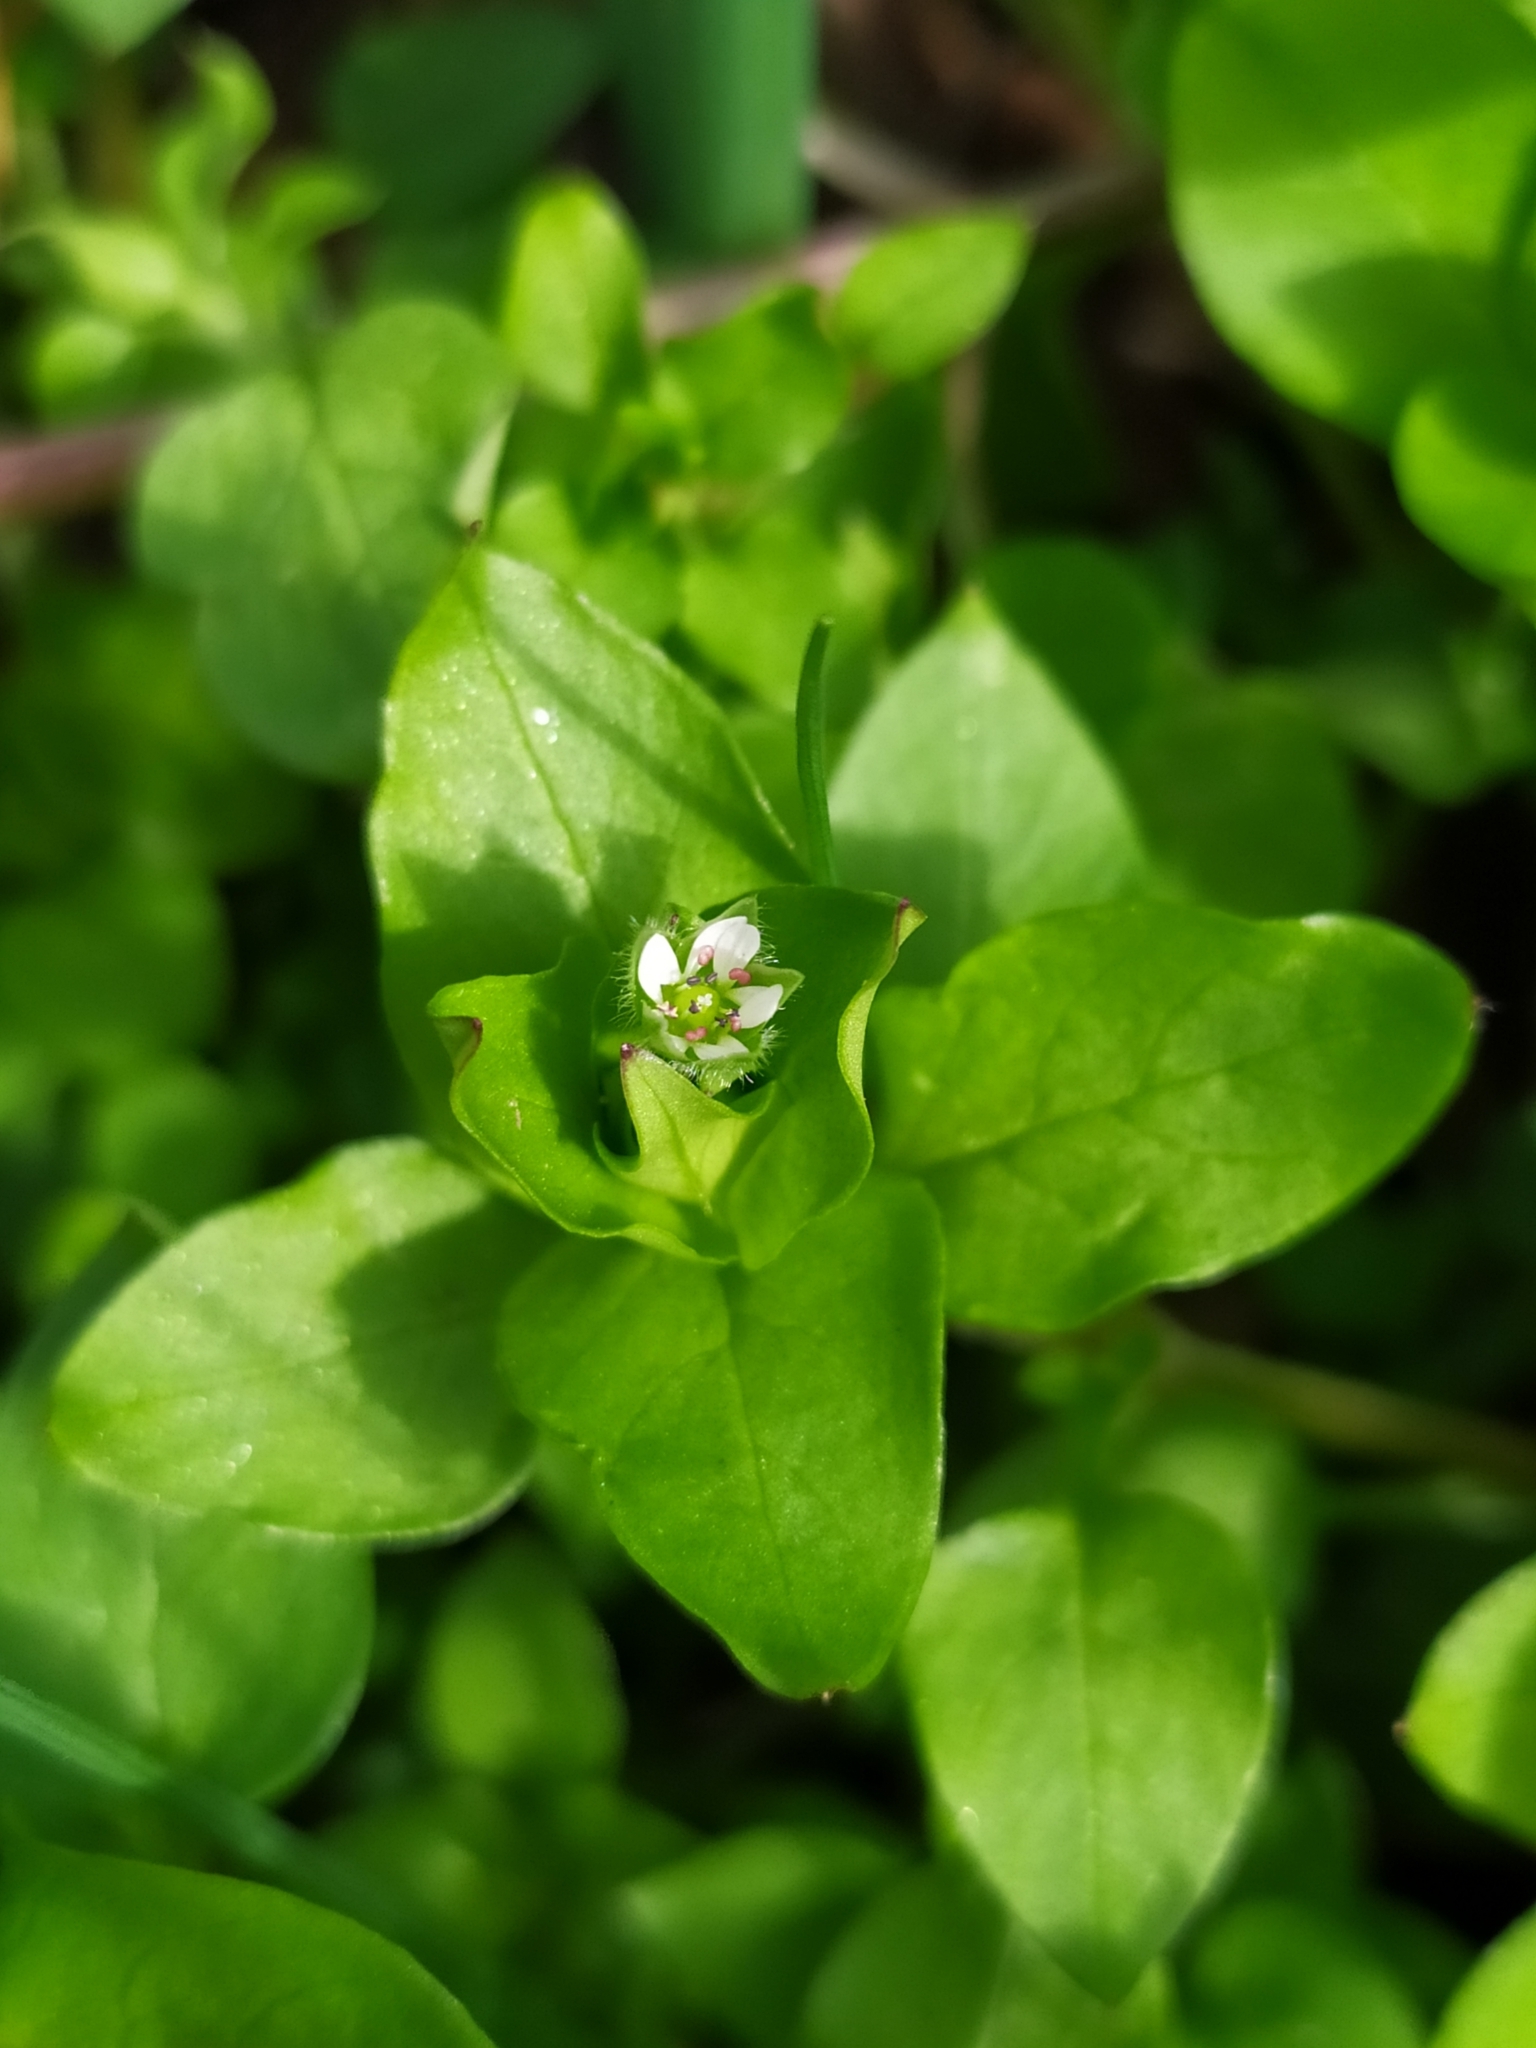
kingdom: Plantae
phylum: Tracheophyta
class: Magnoliopsida
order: Caryophyllales
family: Caryophyllaceae
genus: Stellaria
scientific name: Stellaria media
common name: Common chickweed
